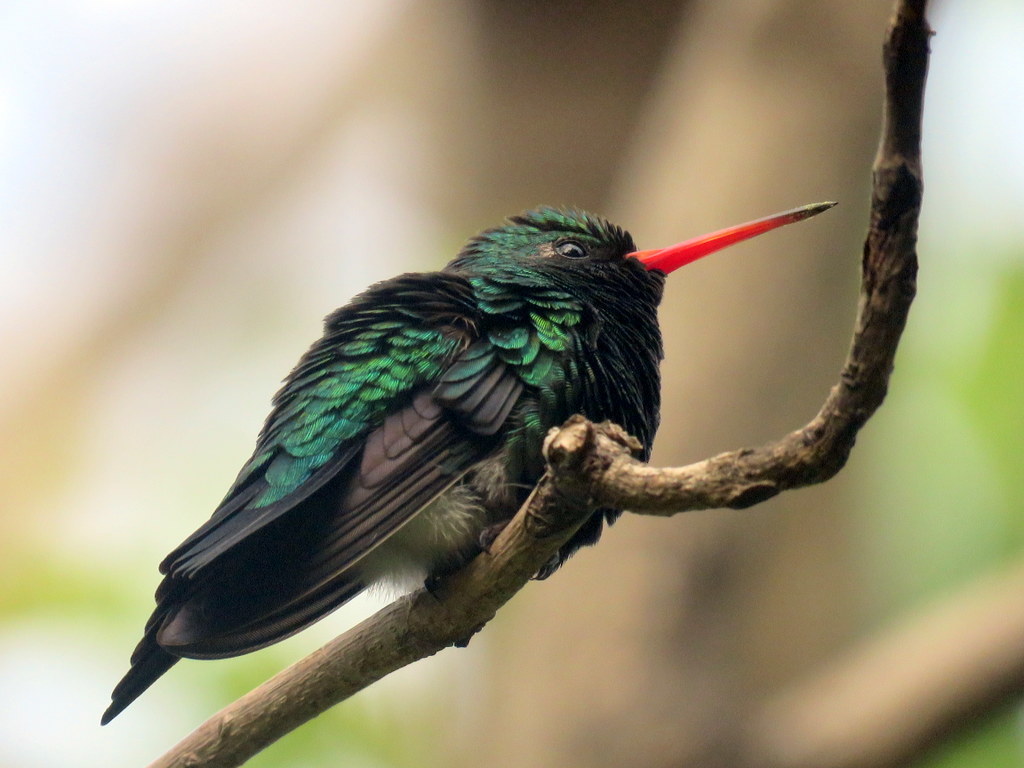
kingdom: Animalia
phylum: Chordata
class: Aves
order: Apodiformes
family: Trochilidae
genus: Chlorostilbon
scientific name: Chlorostilbon lucidus
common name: Glittering-bellied emerald
